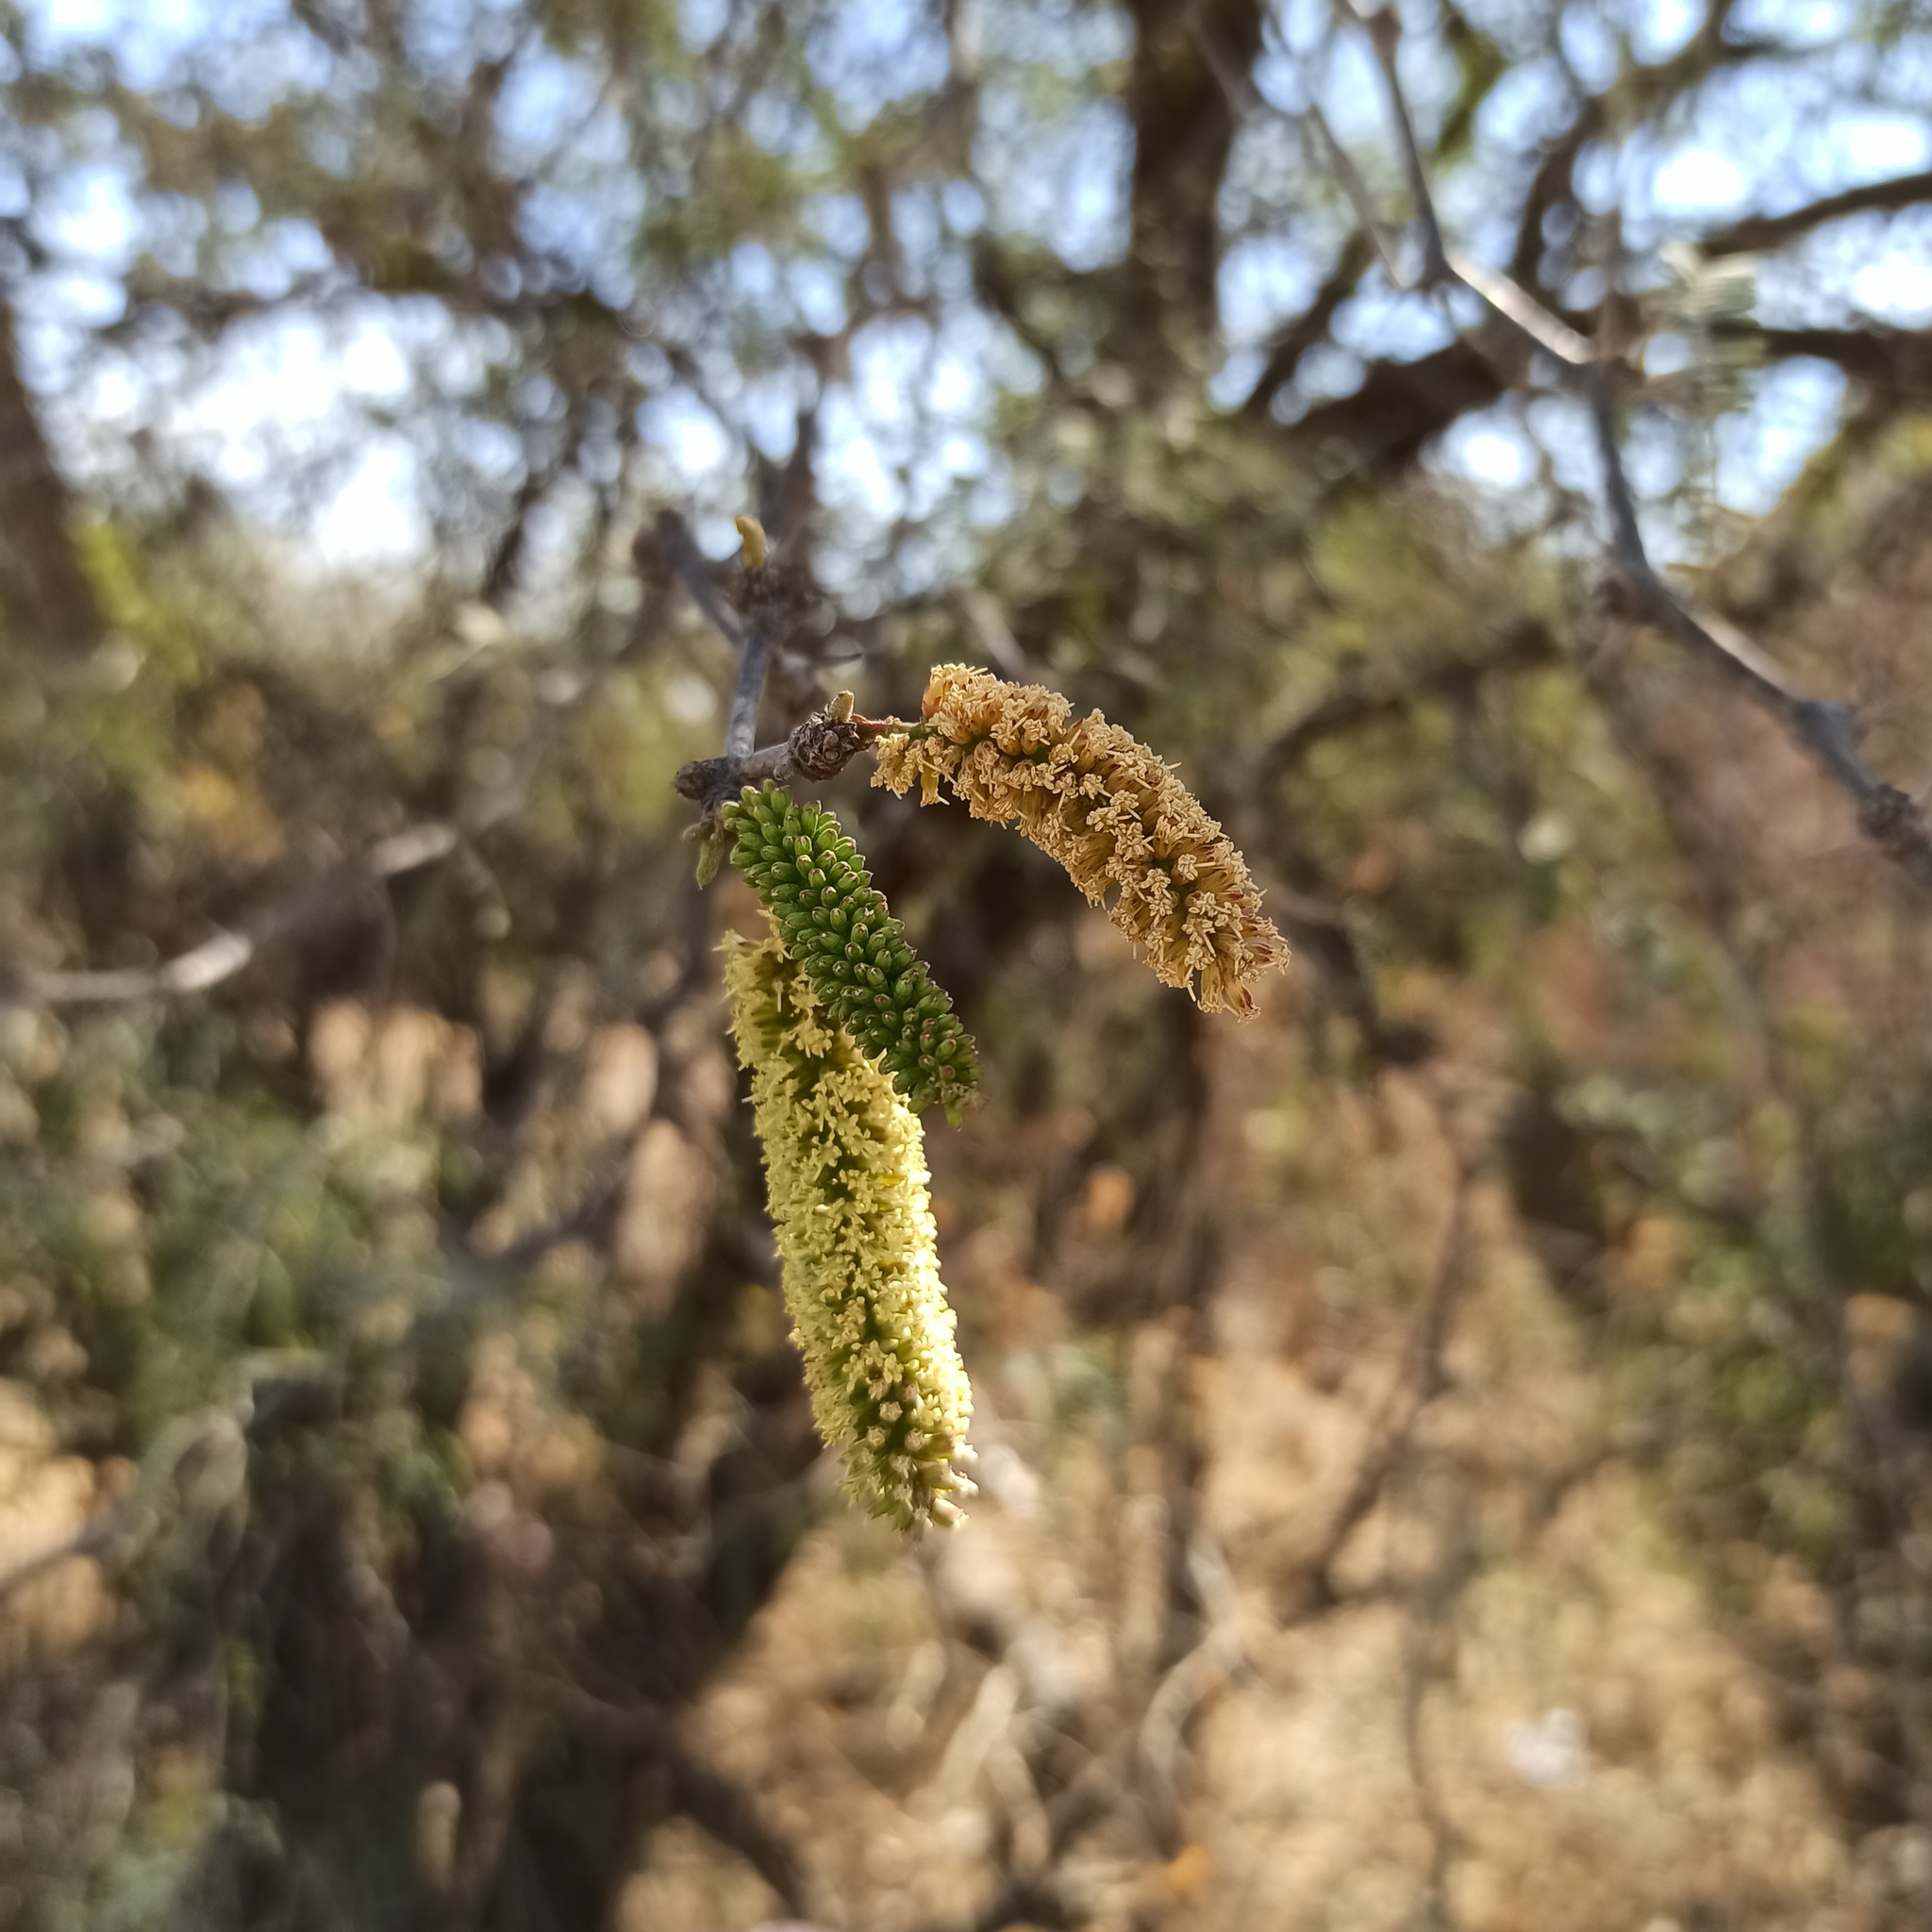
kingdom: Plantae
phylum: Tracheophyta
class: Magnoliopsida
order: Fabales
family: Fabaceae
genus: Prosopis
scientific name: Prosopis laevigata
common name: Smooth mesquite
